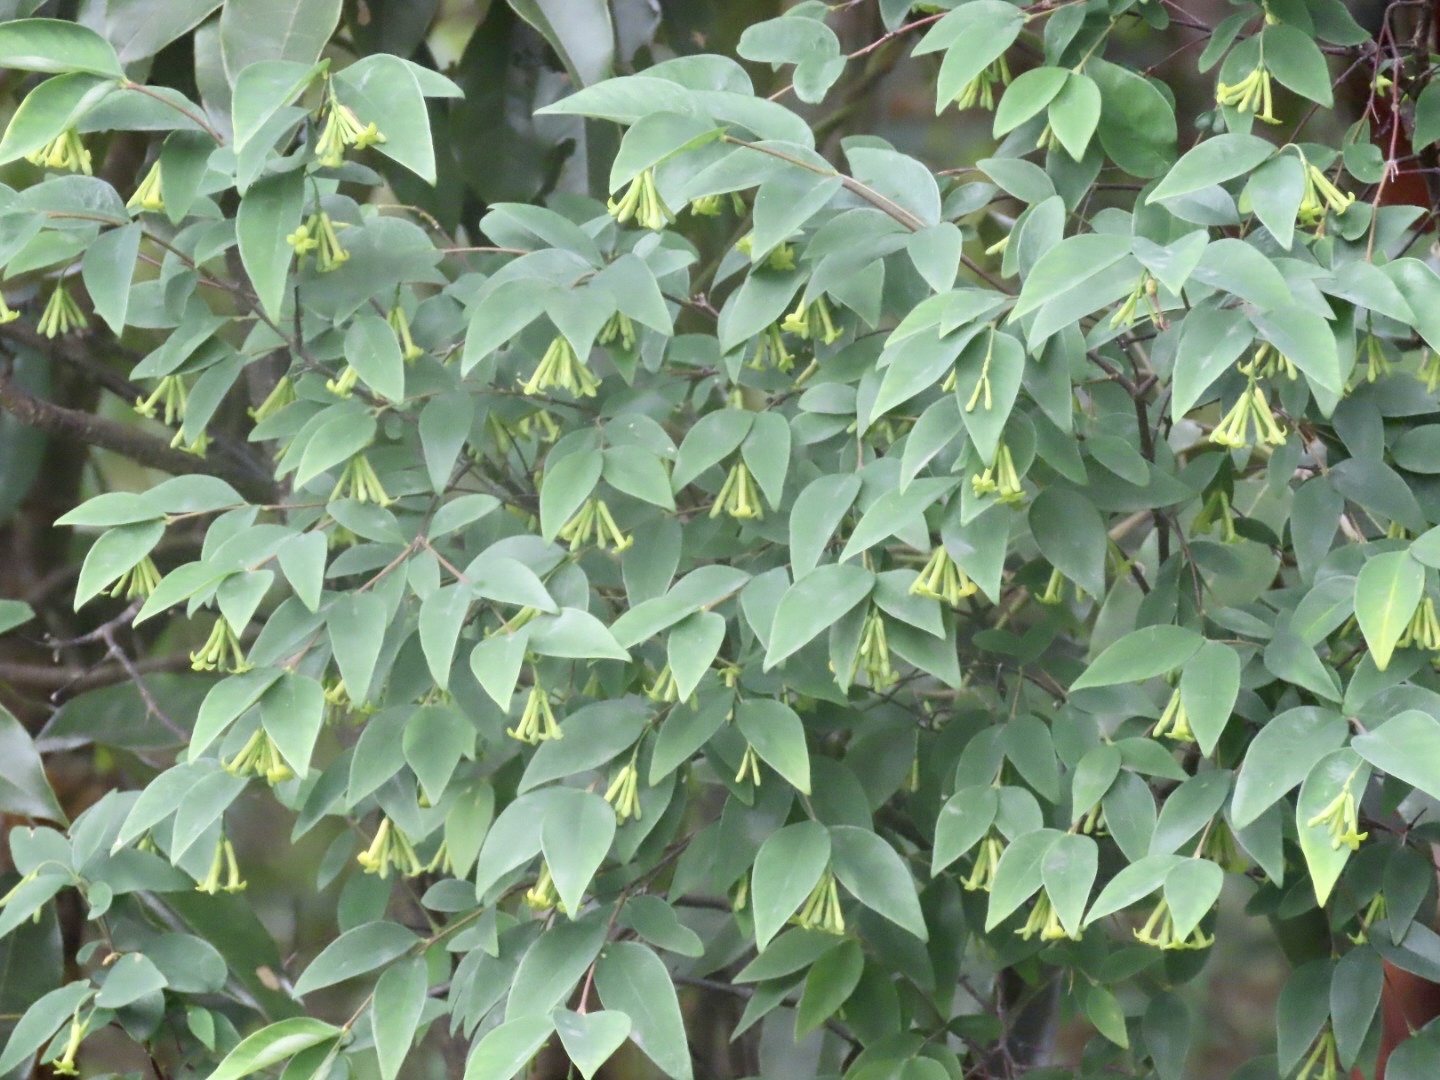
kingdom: Plantae
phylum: Tracheophyta
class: Magnoliopsida
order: Malvales
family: Thymelaeaceae
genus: Wikstroemia
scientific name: Wikstroemia nutans
